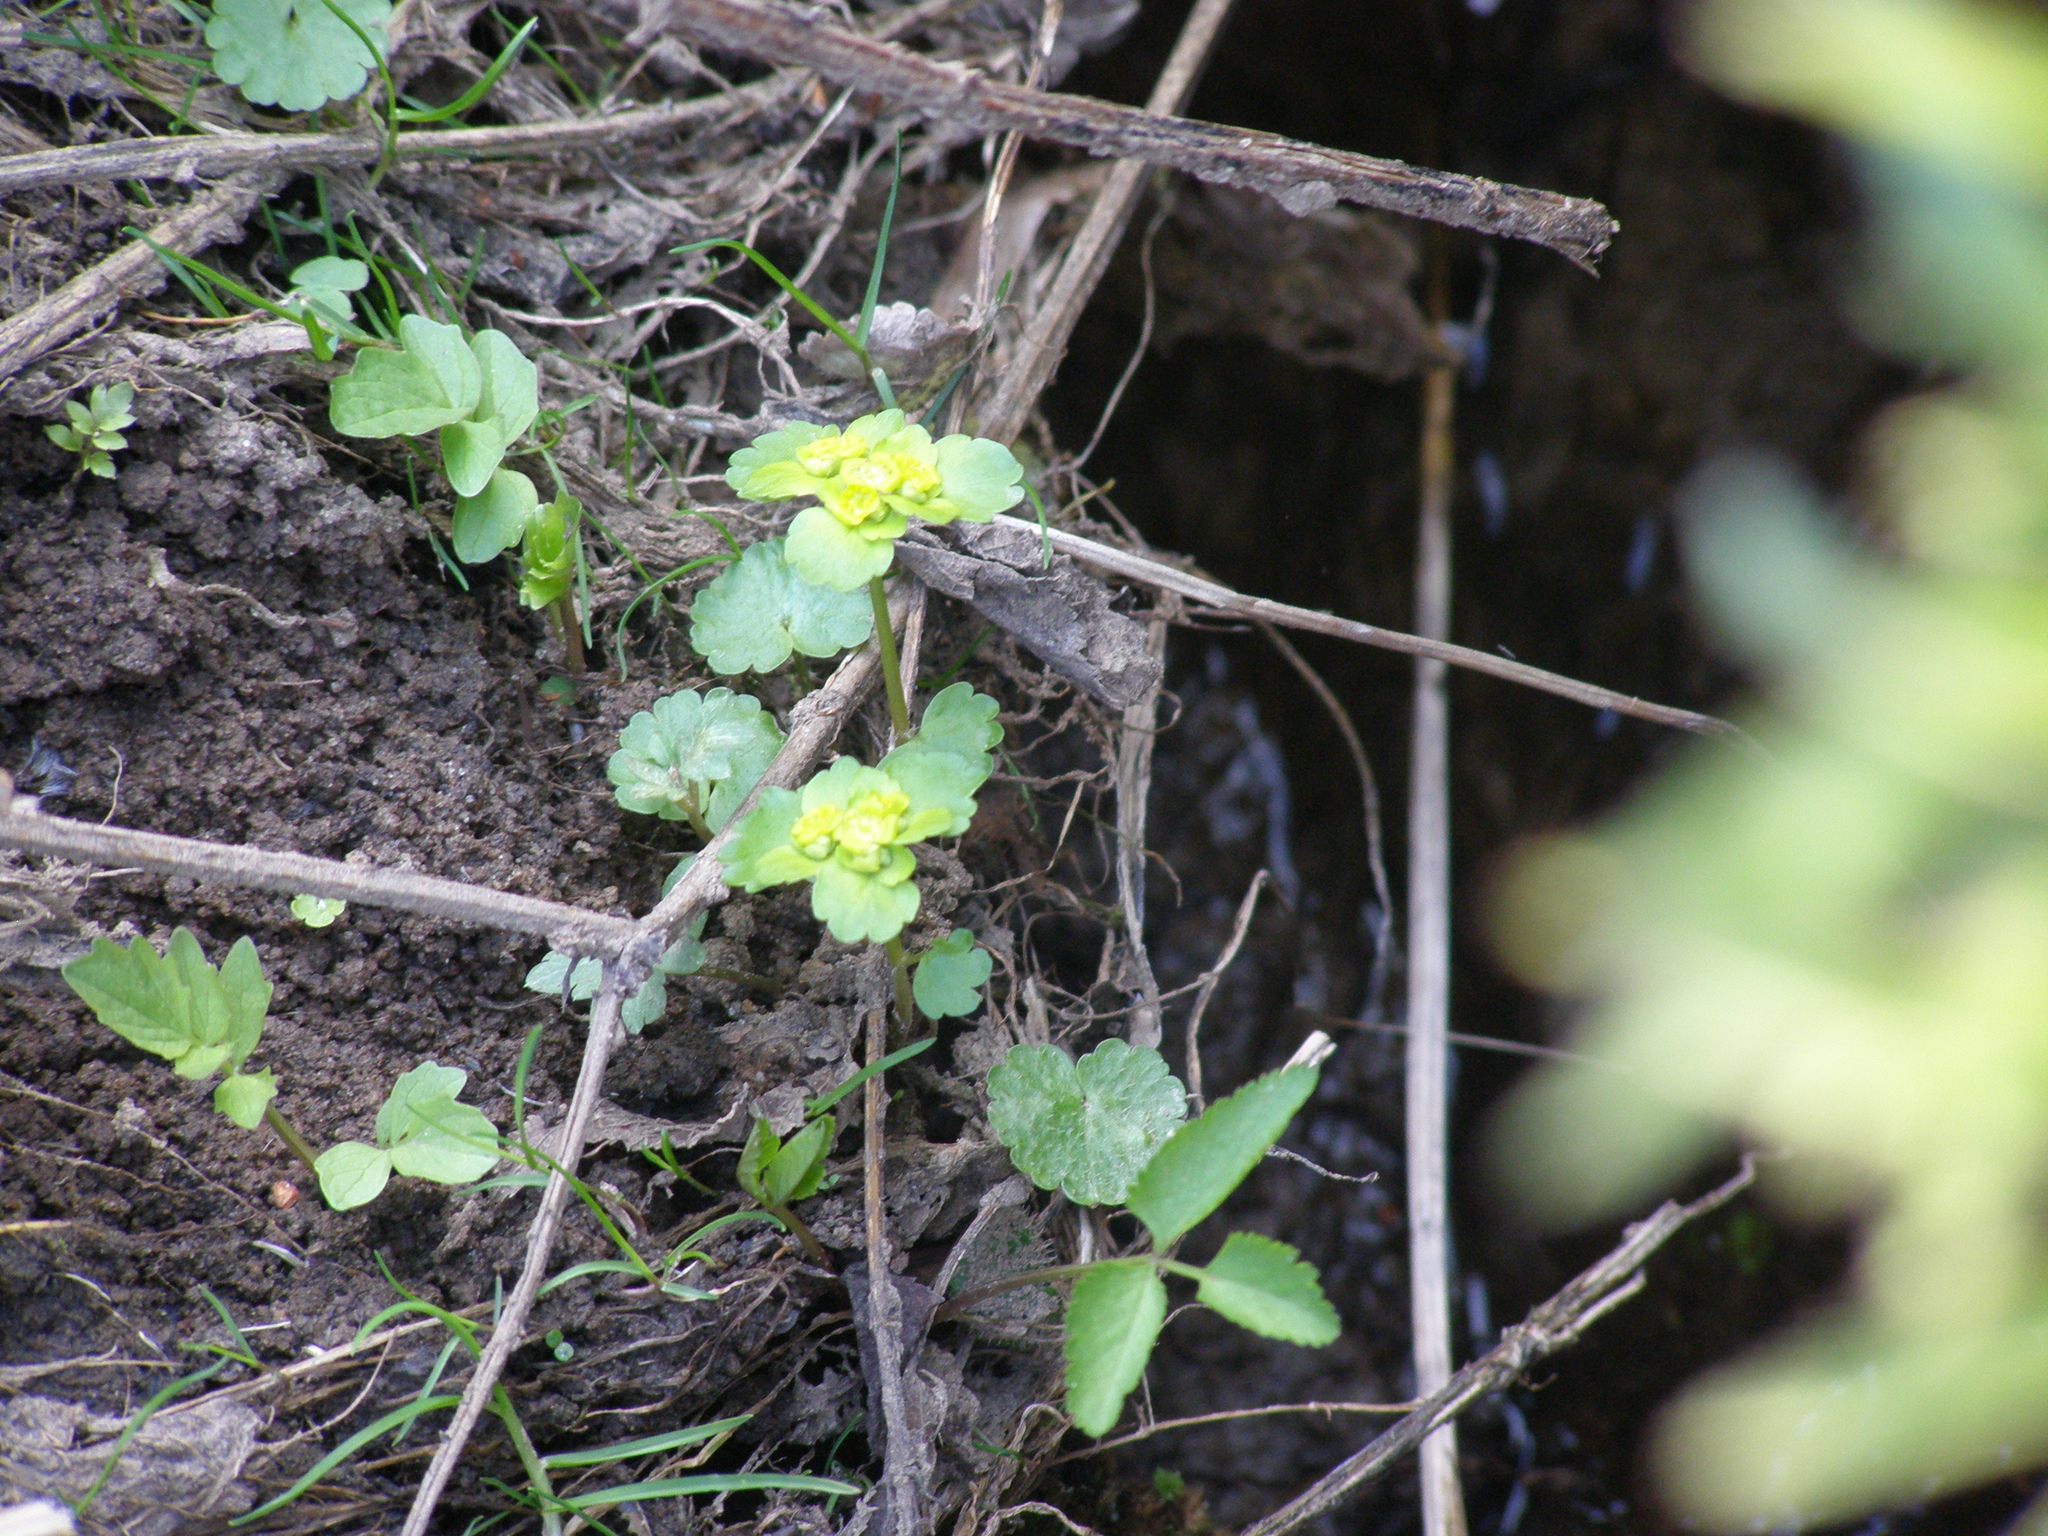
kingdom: Plantae
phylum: Tracheophyta
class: Magnoliopsida
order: Saxifragales
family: Saxifragaceae
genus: Chrysosplenium
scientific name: Chrysosplenium alternifolium
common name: Alternate-leaved golden-saxifrage
